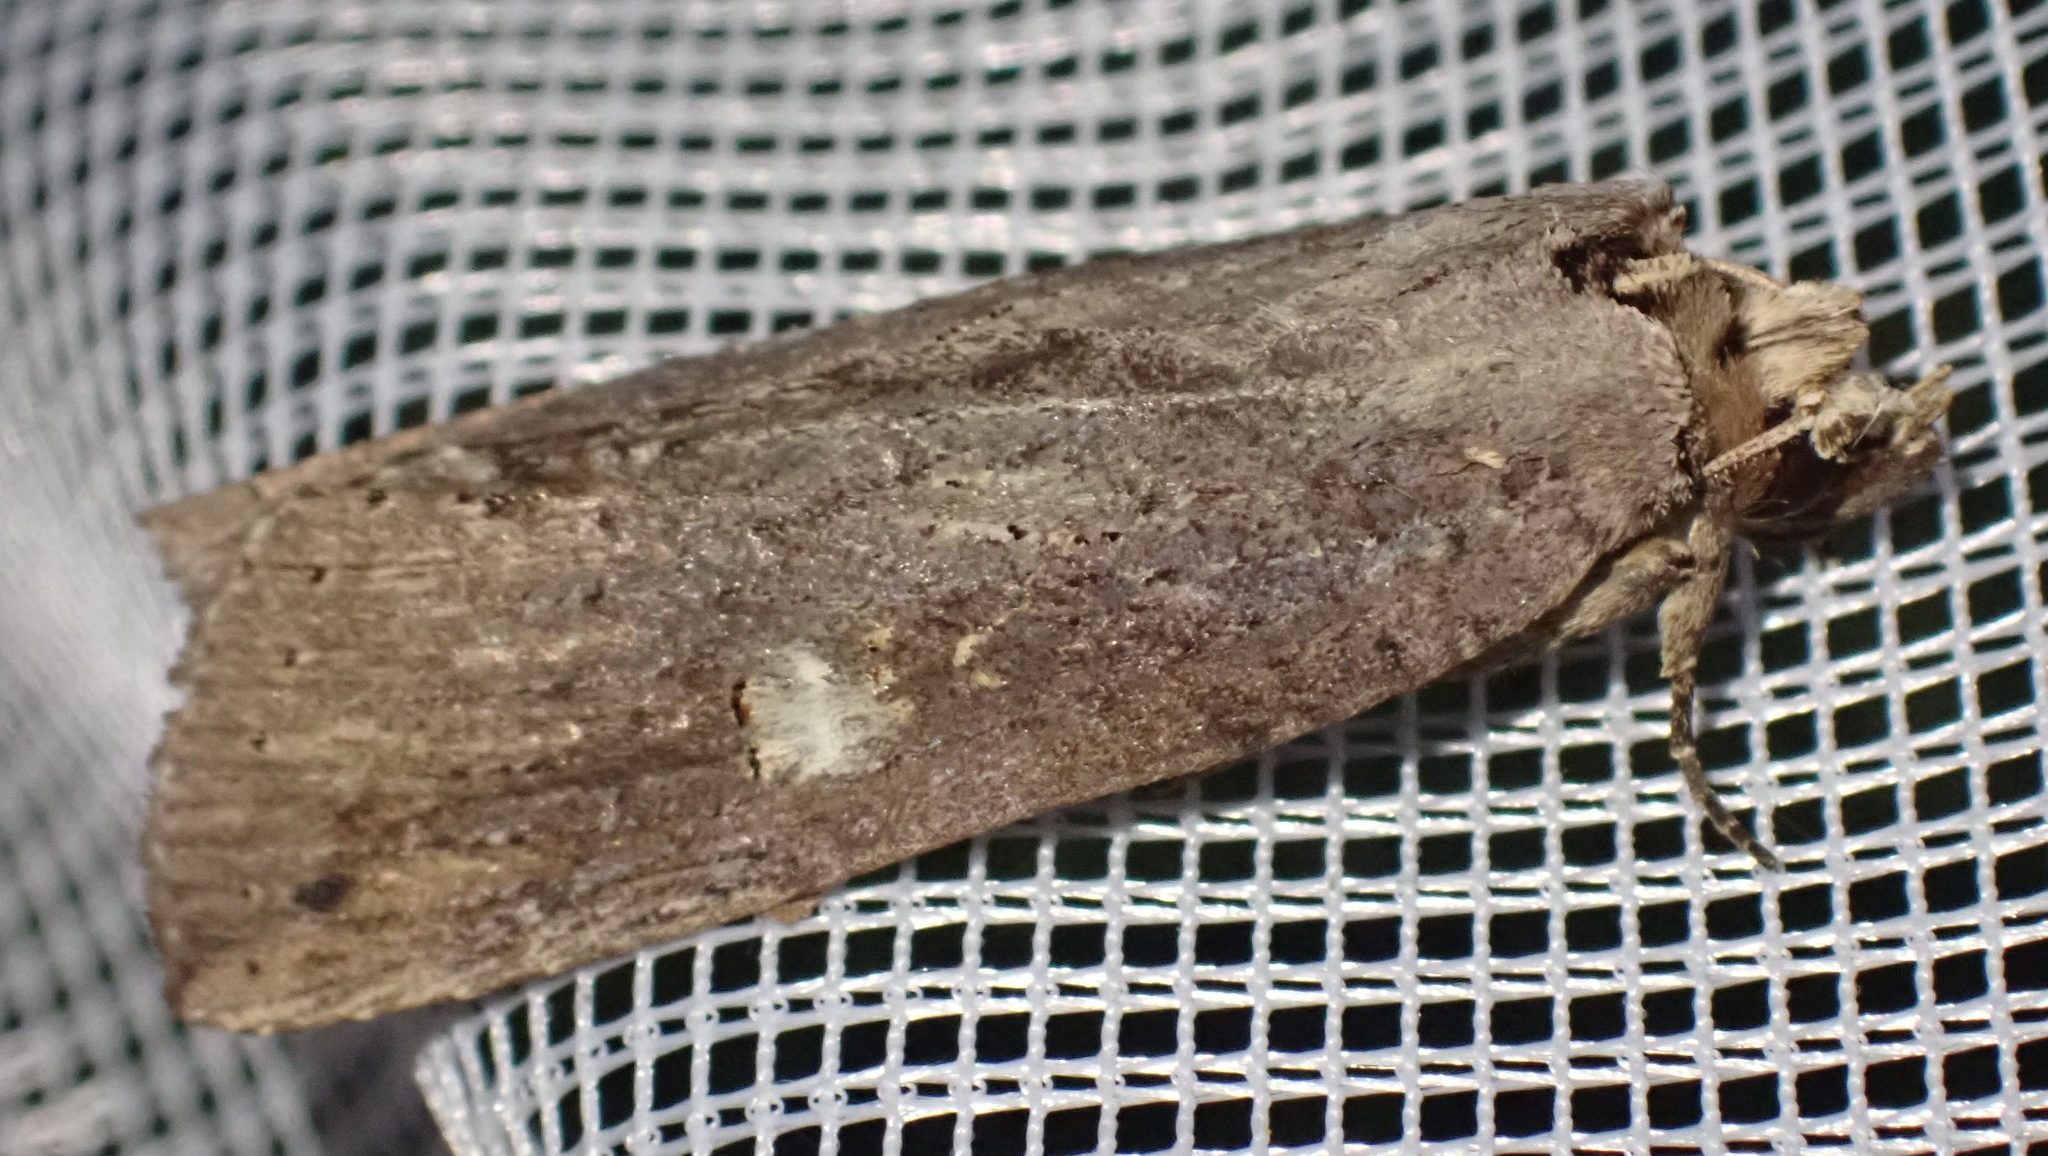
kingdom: Animalia
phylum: Arthropoda
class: Insecta
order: Lepidoptera
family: Notodontidae
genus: Ortholomia
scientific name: Ortholomia moluccana
